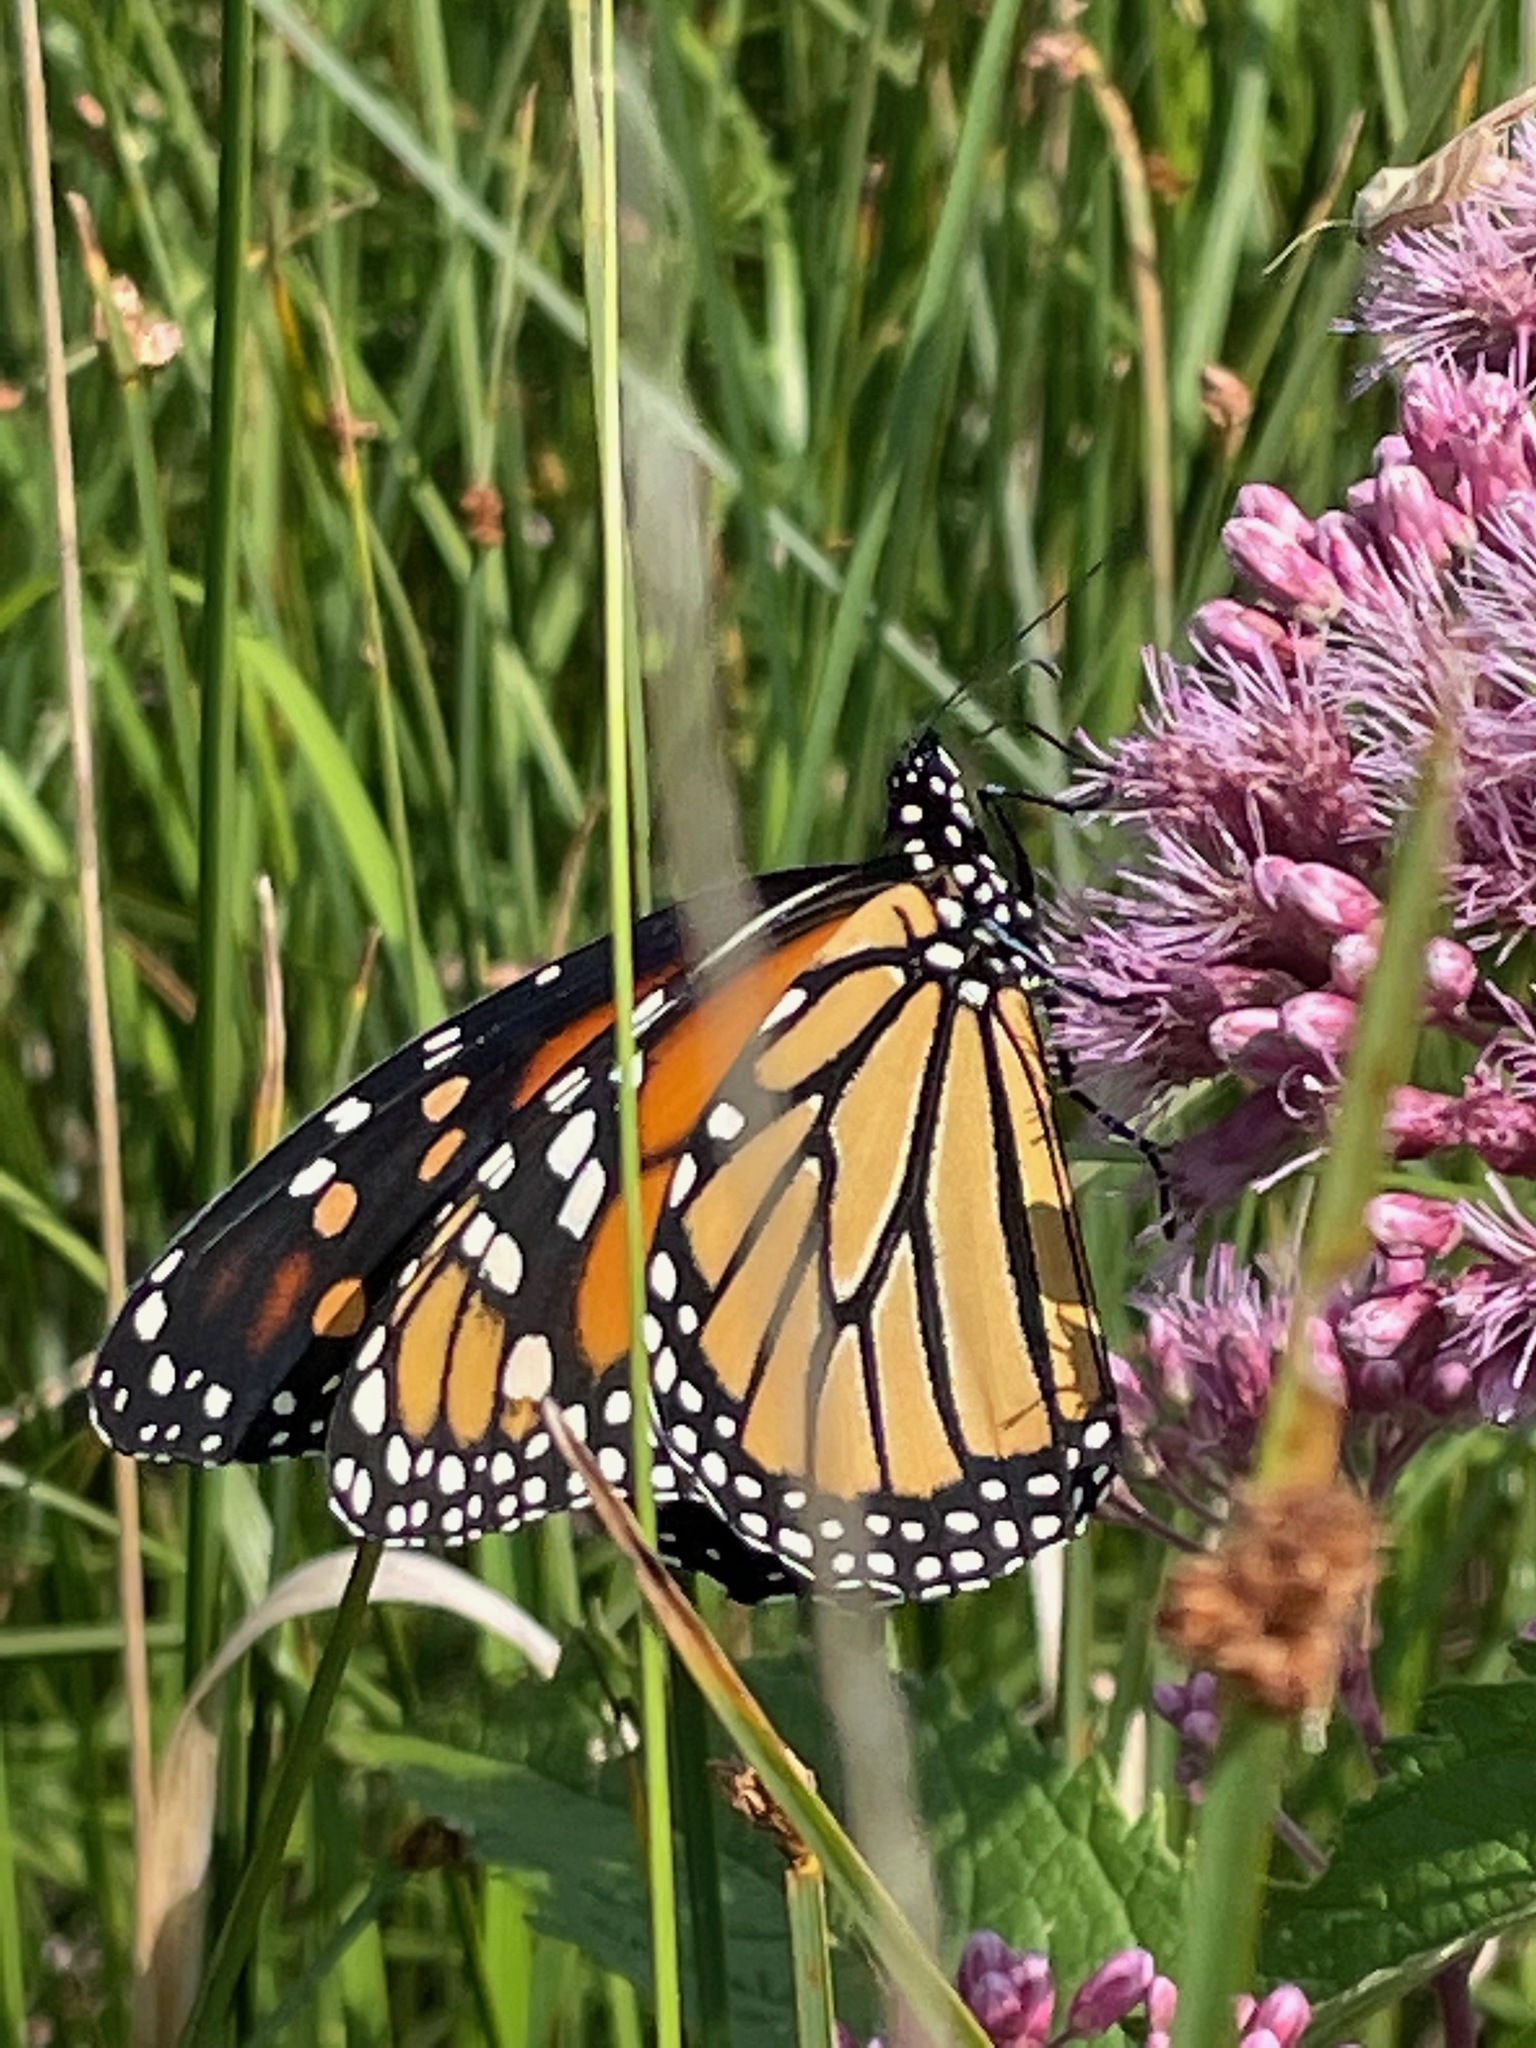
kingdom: Animalia
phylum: Arthropoda
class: Insecta
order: Lepidoptera
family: Nymphalidae
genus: Danaus
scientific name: Danaus plexippus
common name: Monarch
